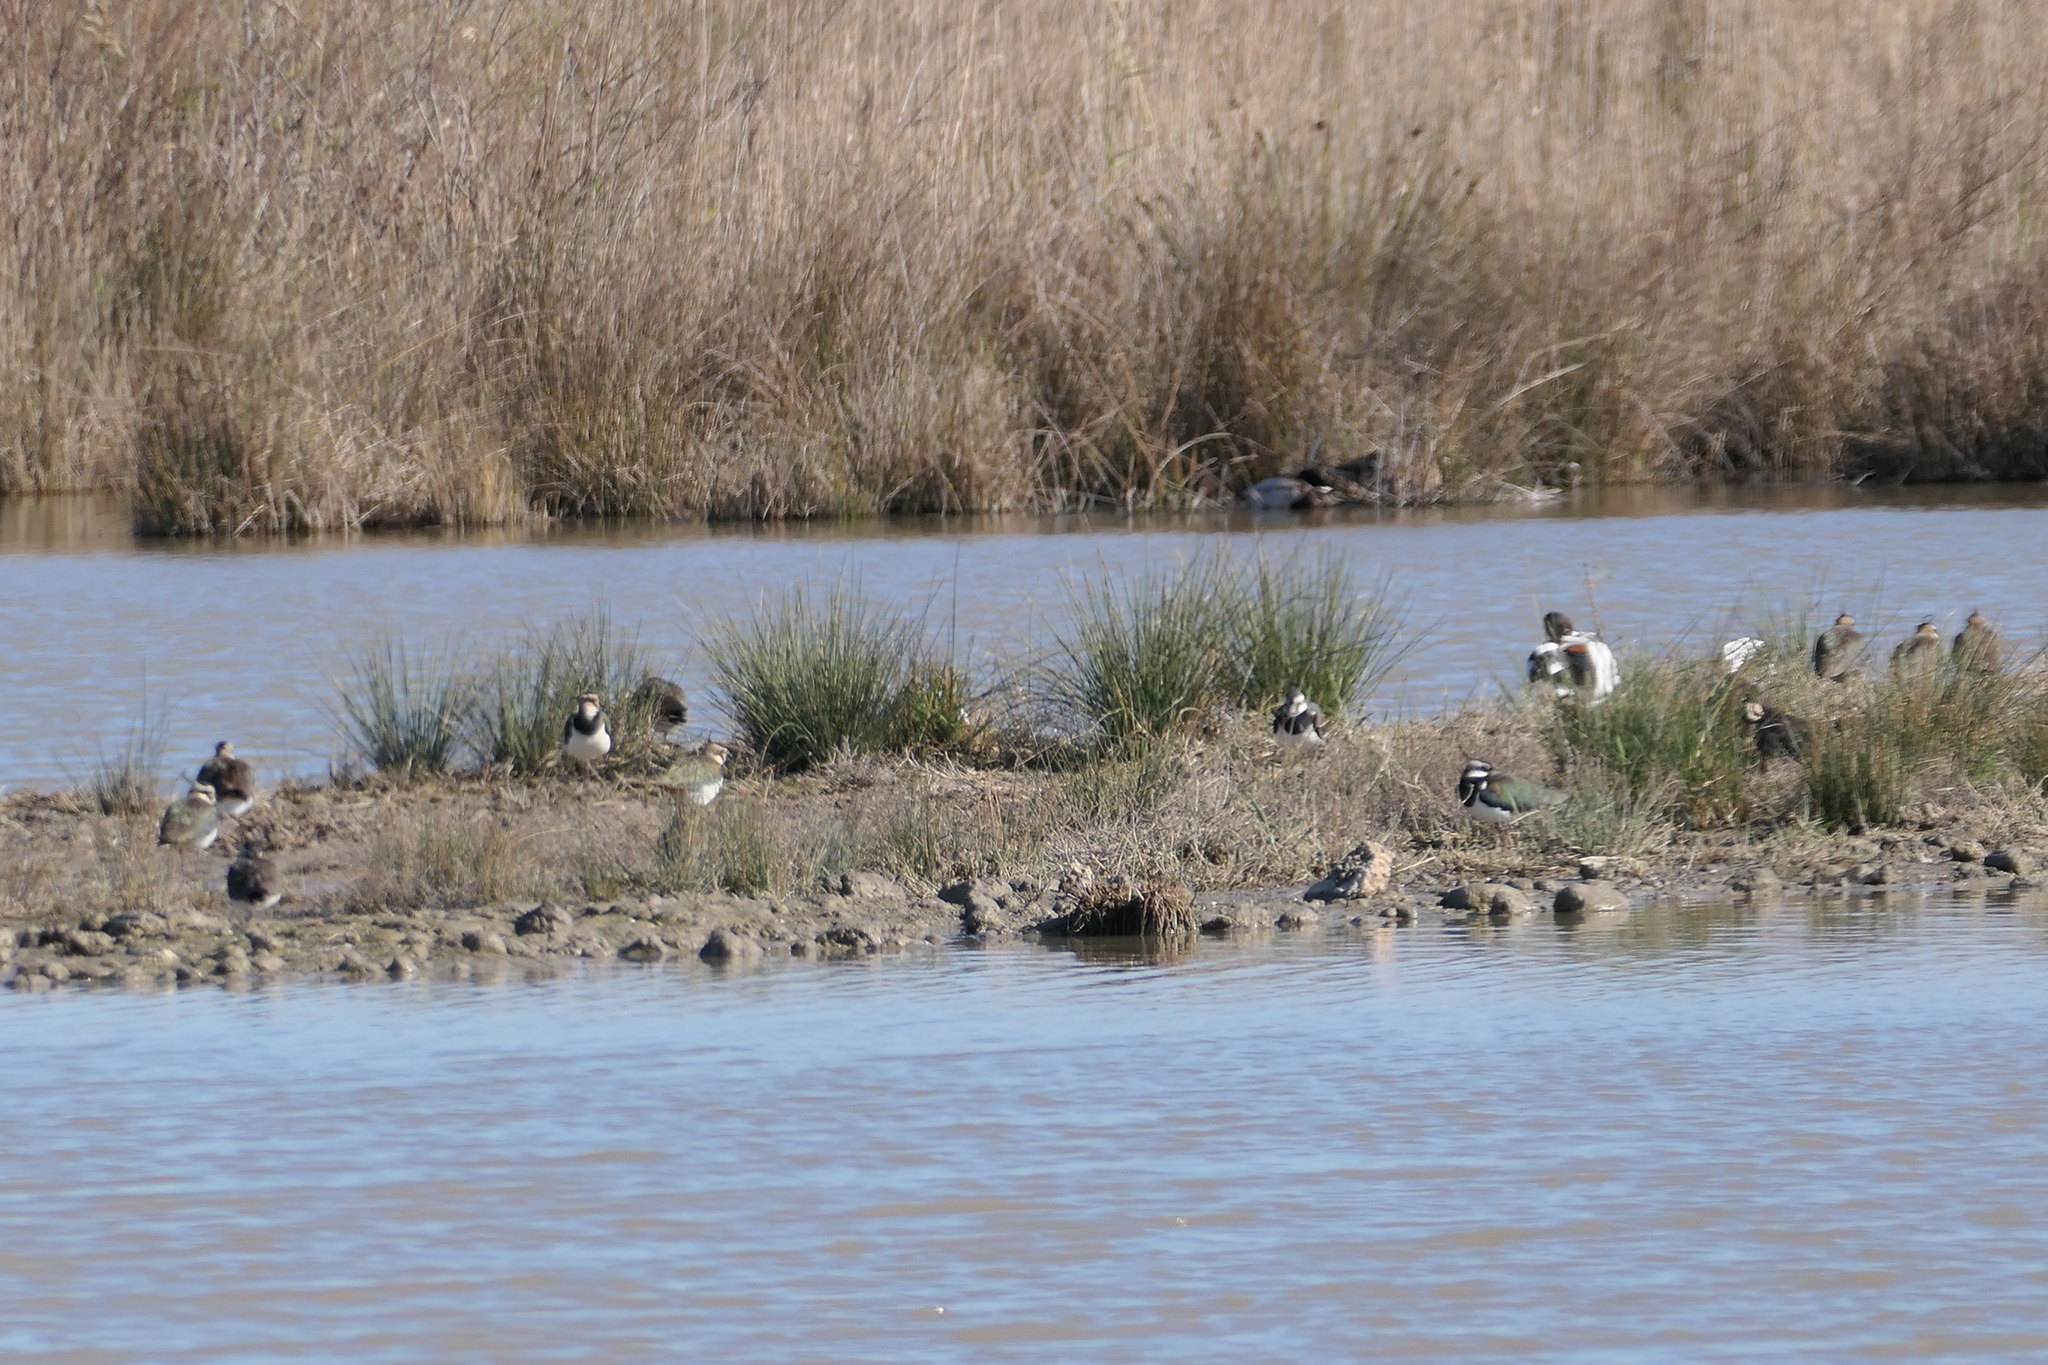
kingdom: Animalia
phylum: Chordata
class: Aves
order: Charadriiformes
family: Charadriidae
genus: Vanellus
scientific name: Vanellus vanellus
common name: Northern lapwing
